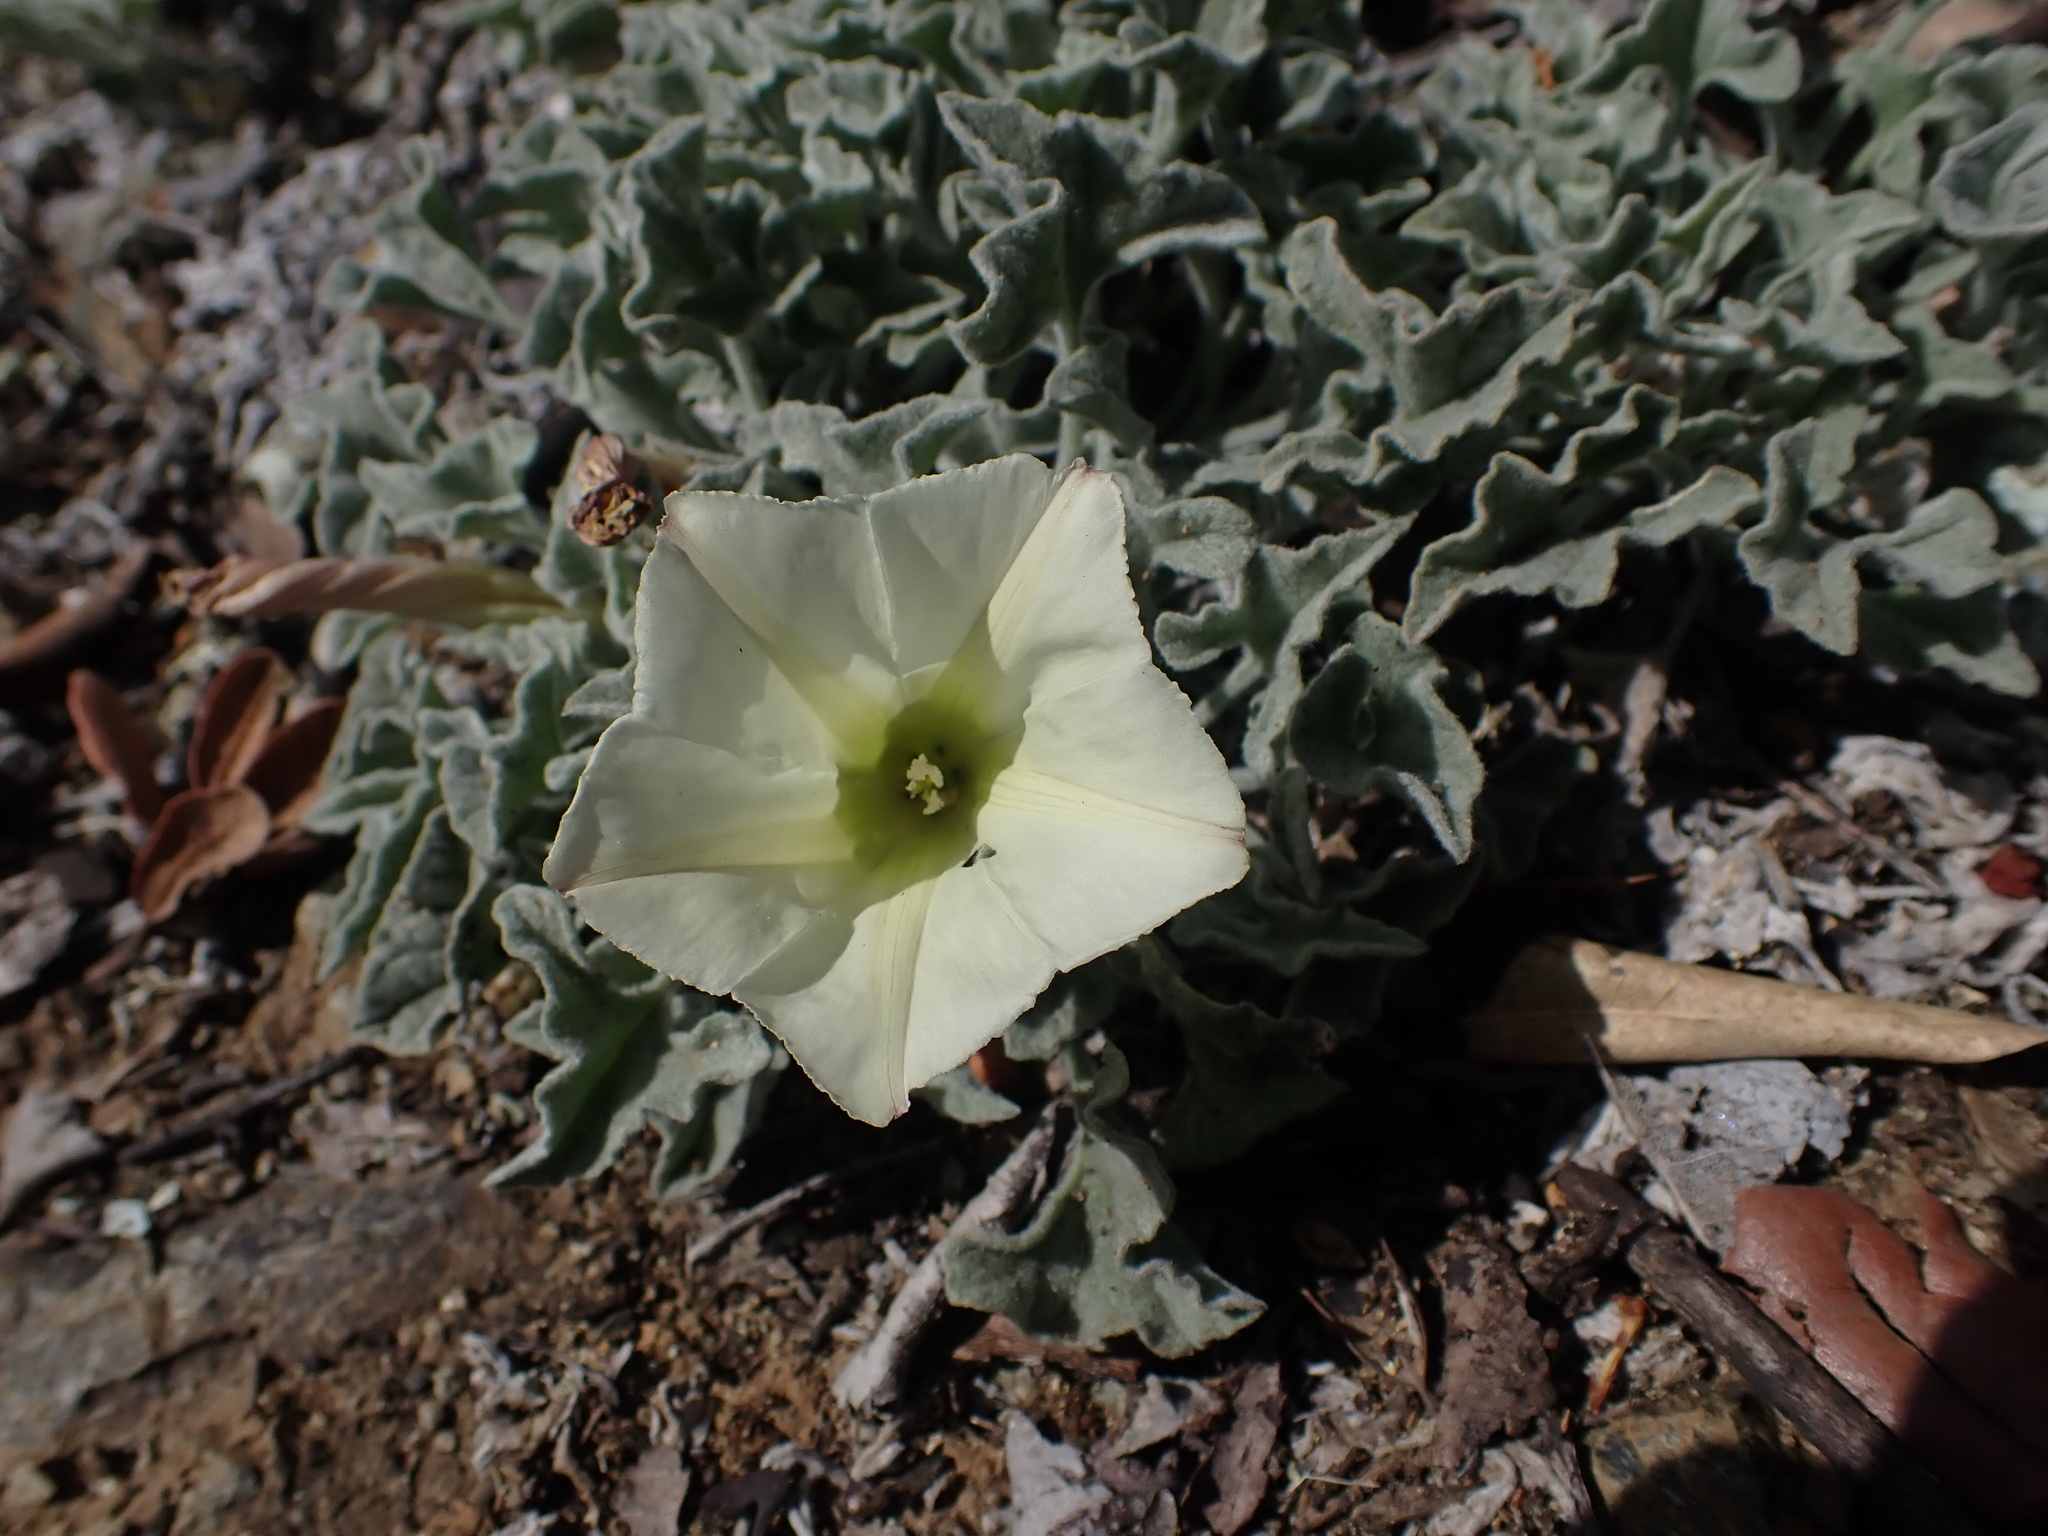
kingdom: Plantae
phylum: Tracheophyta
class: Magnoliopsida
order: Solanales
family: Convolvulaceae
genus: Calystegia
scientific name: Calystegia collina
